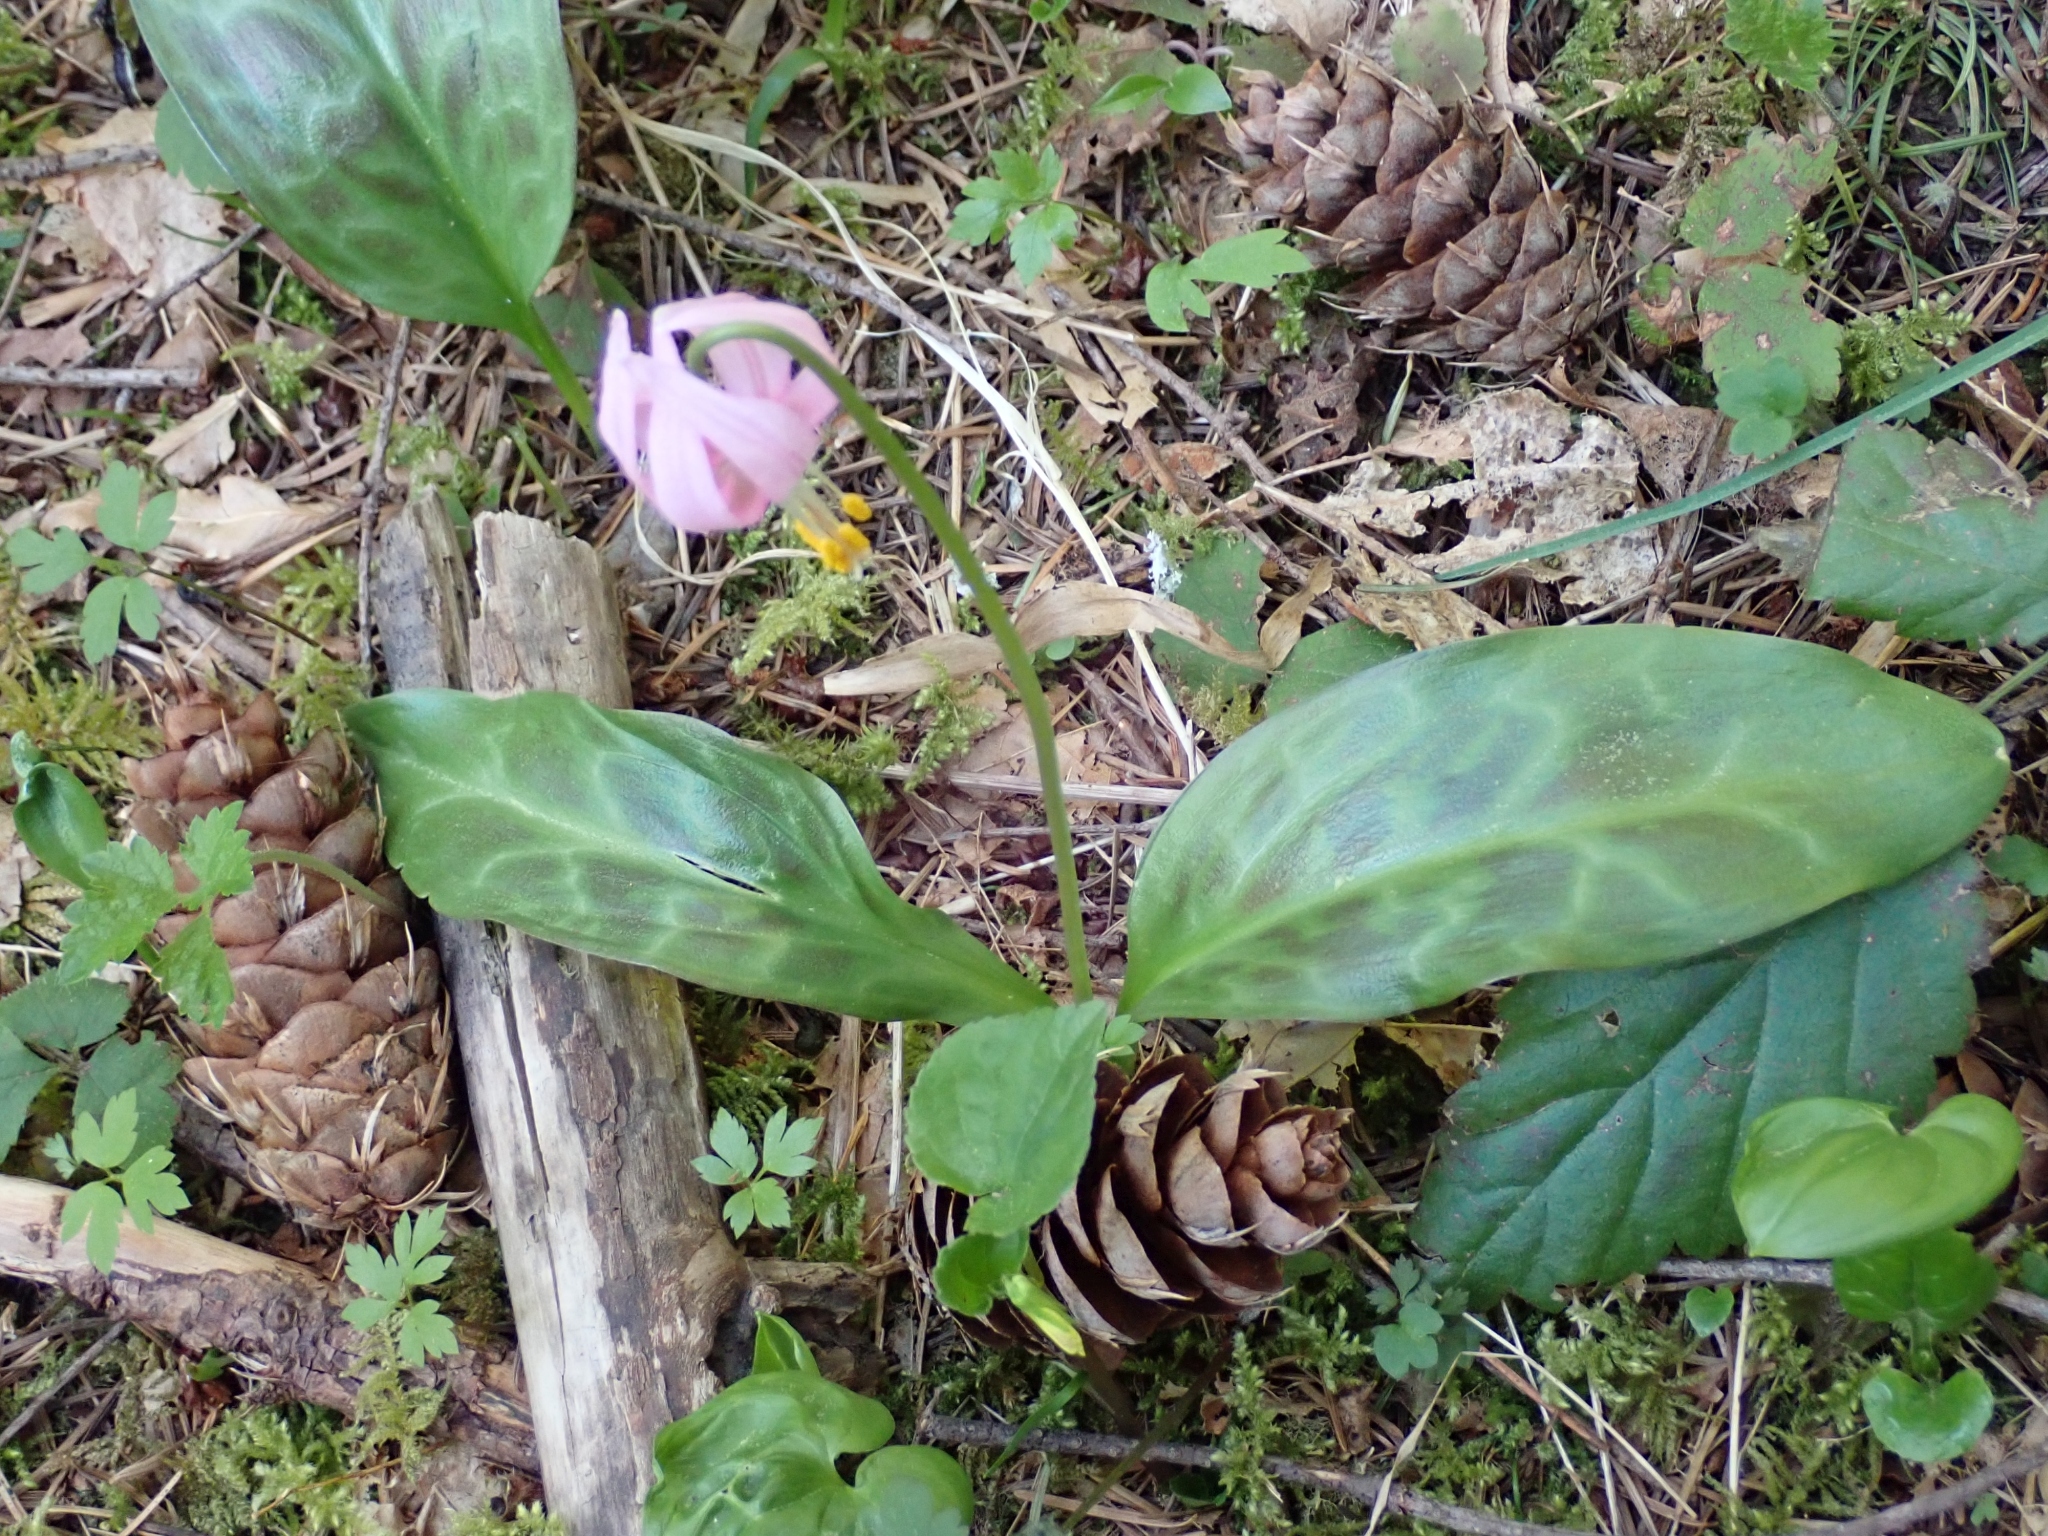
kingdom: Plantae
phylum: Tracheophyta
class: Liliopsida
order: Liliales
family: Liliaceae
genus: Erythronium
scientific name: Erythronium revolutum
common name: Pink fawn-lily
